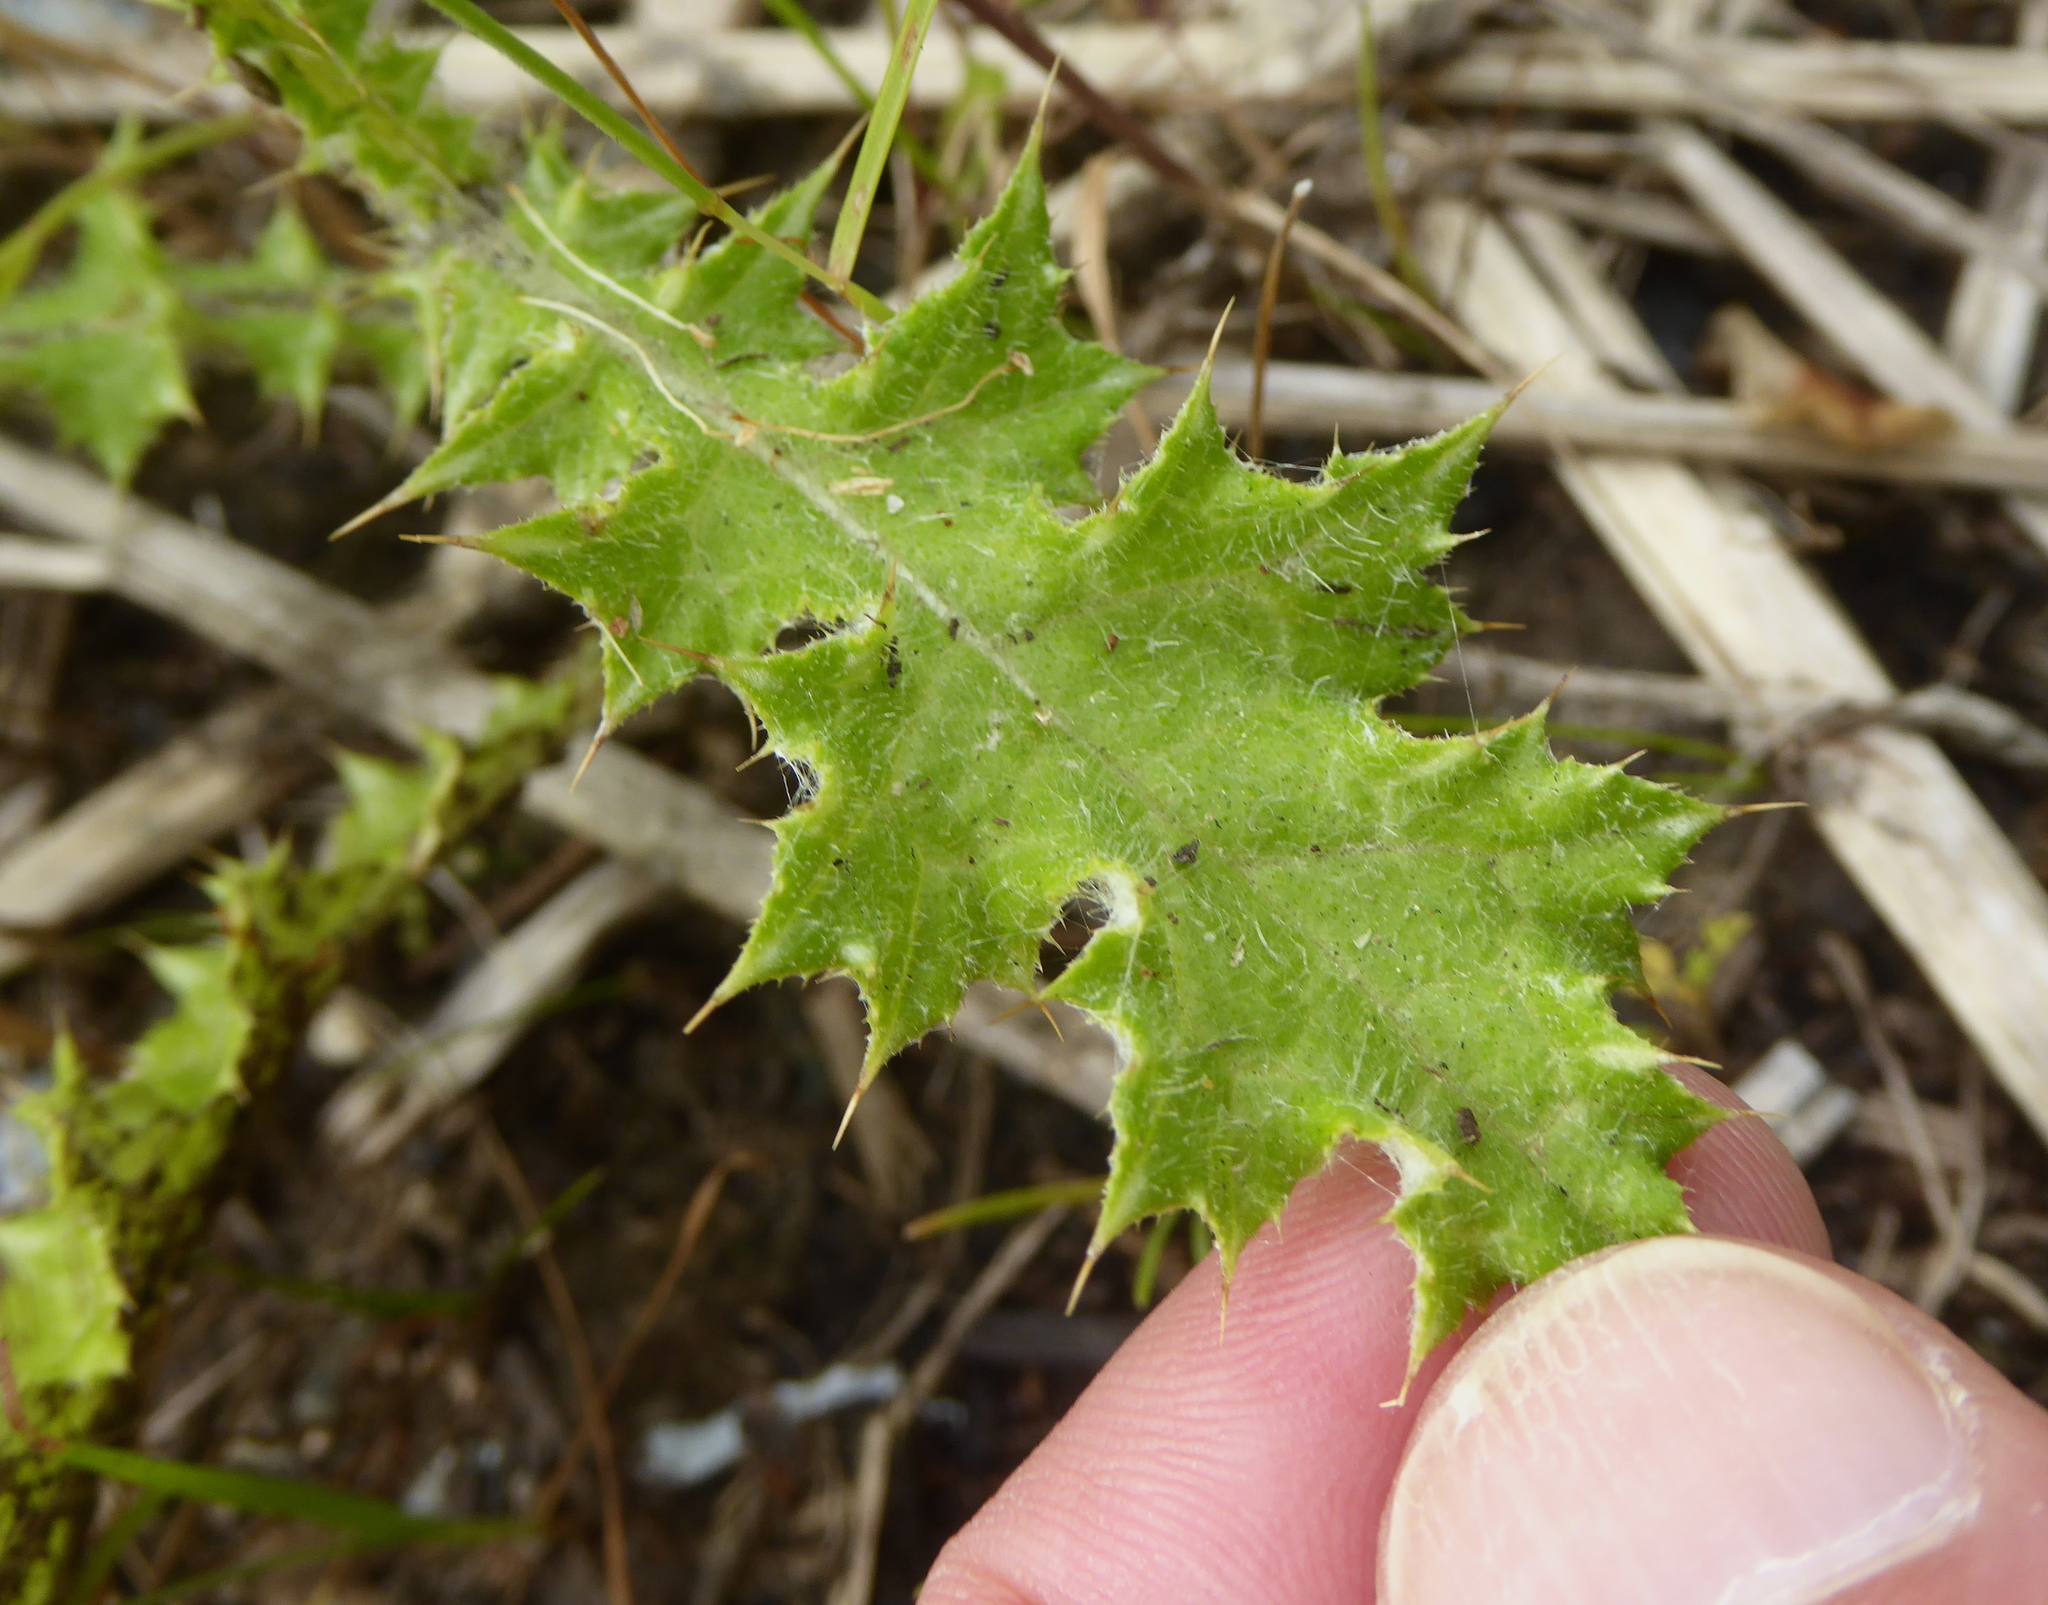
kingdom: Plantae
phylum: Tracheophyta
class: Magnoliopsida
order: Asterales
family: Asteraceae
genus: Carduus
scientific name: Carduus pycnocephalus
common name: Plymouth thistle
